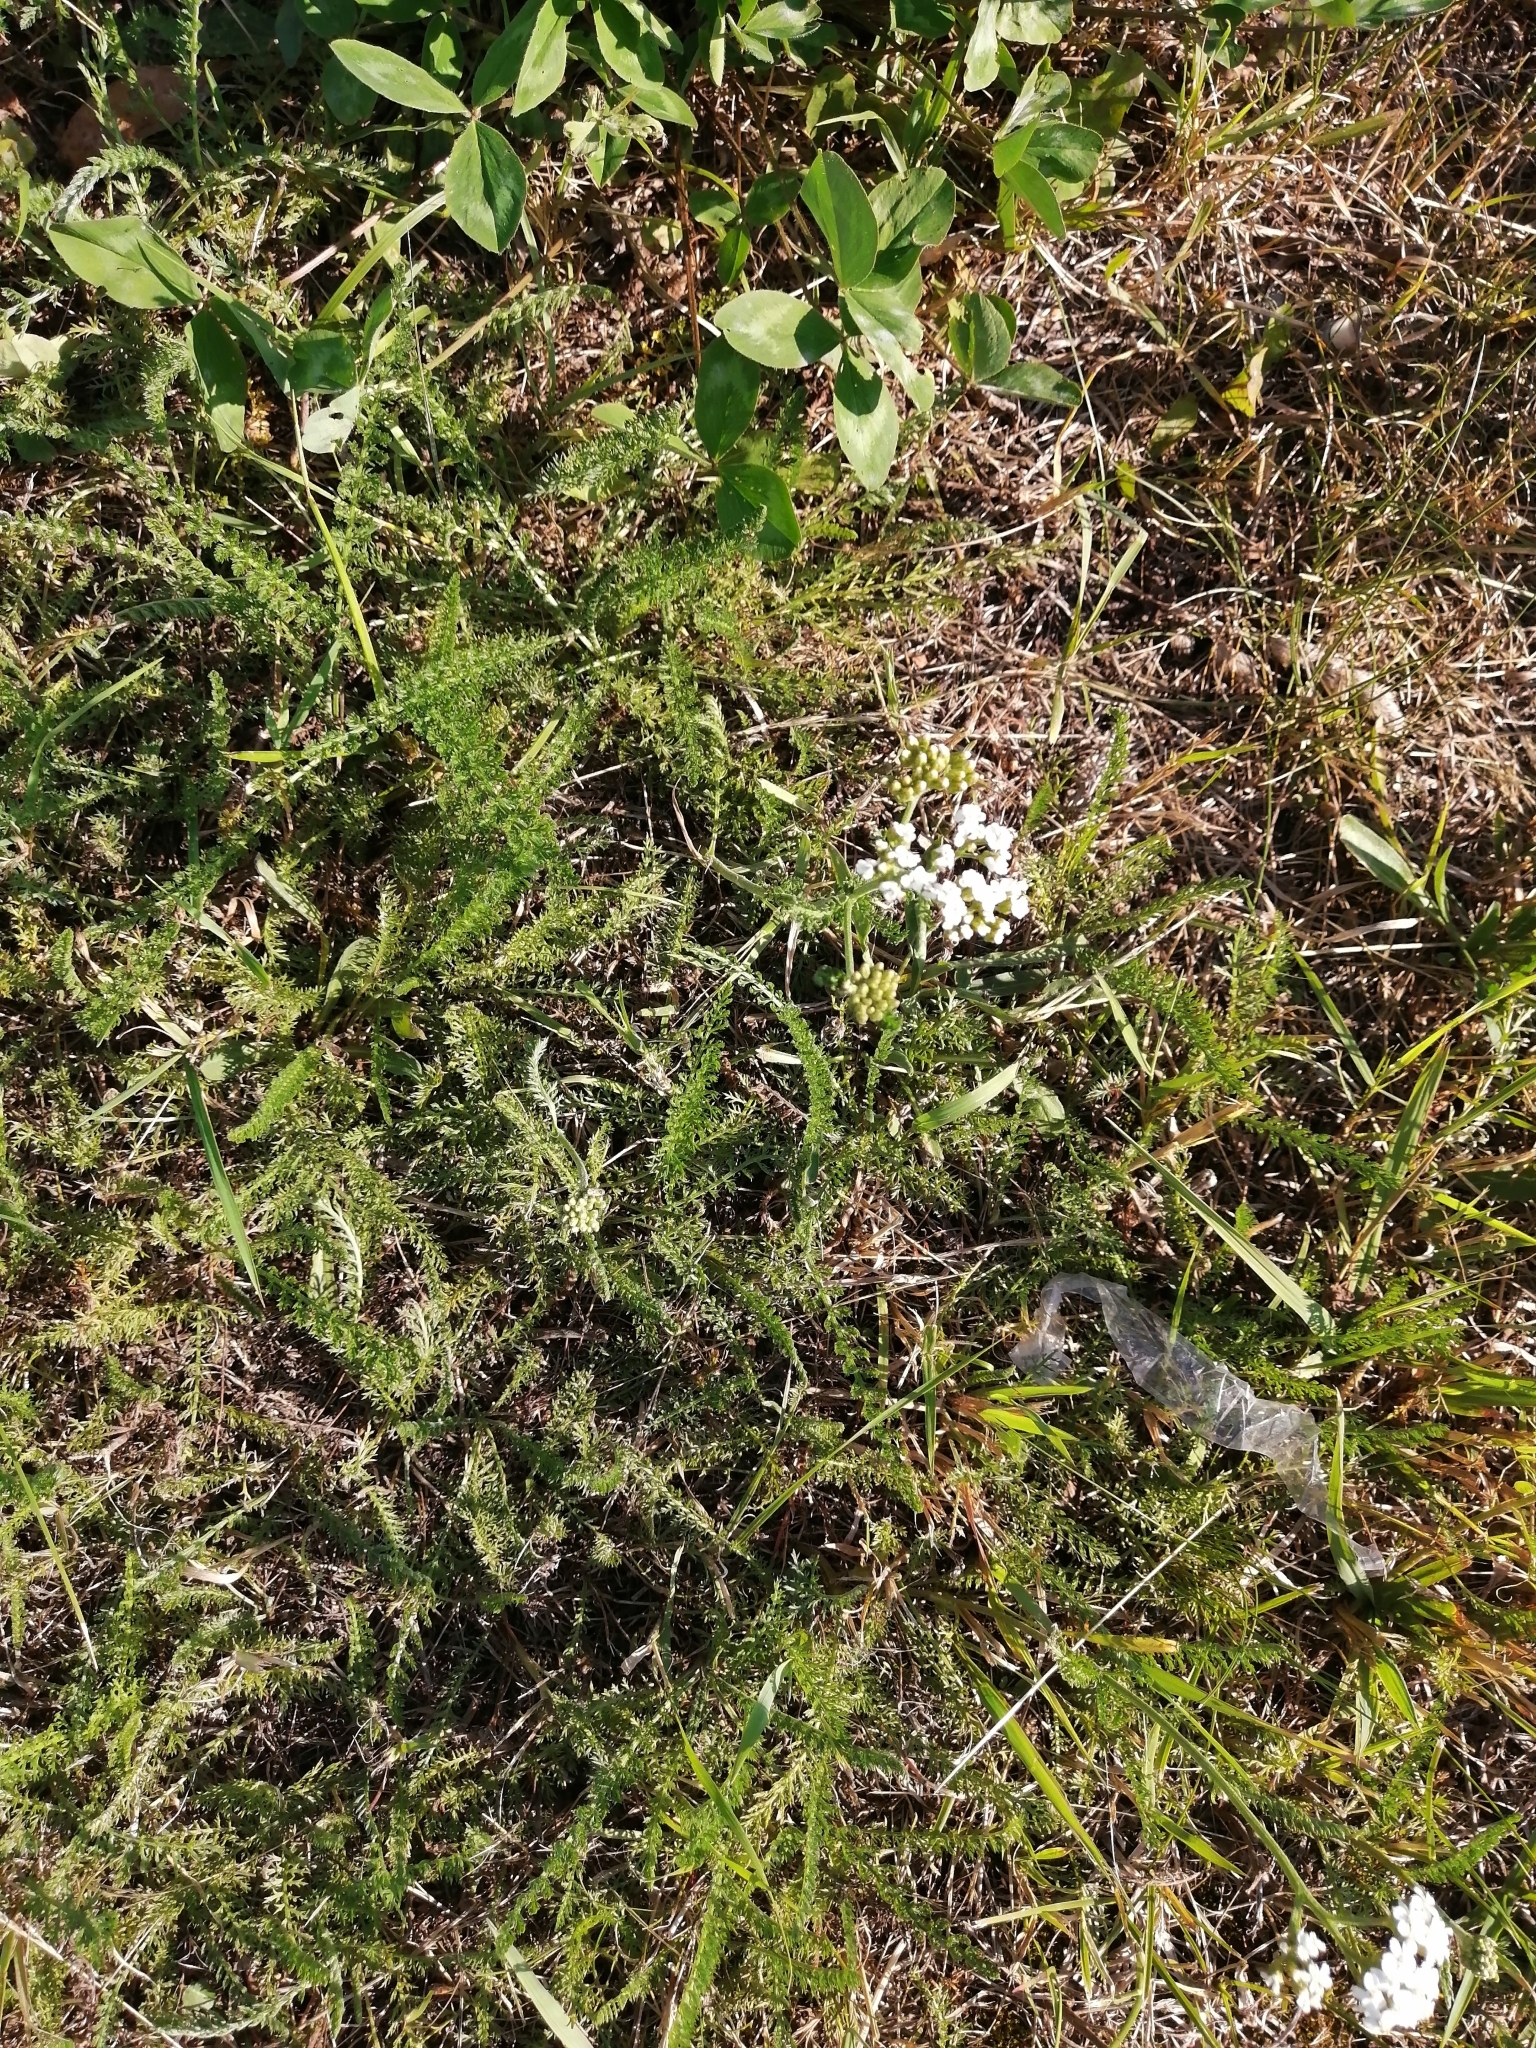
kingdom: Plantae
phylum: Tracheophyta
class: Magnoliopsida
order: Asterales
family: Asteraceae
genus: Achillea
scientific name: Achillea millefolium
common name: Yarrow
